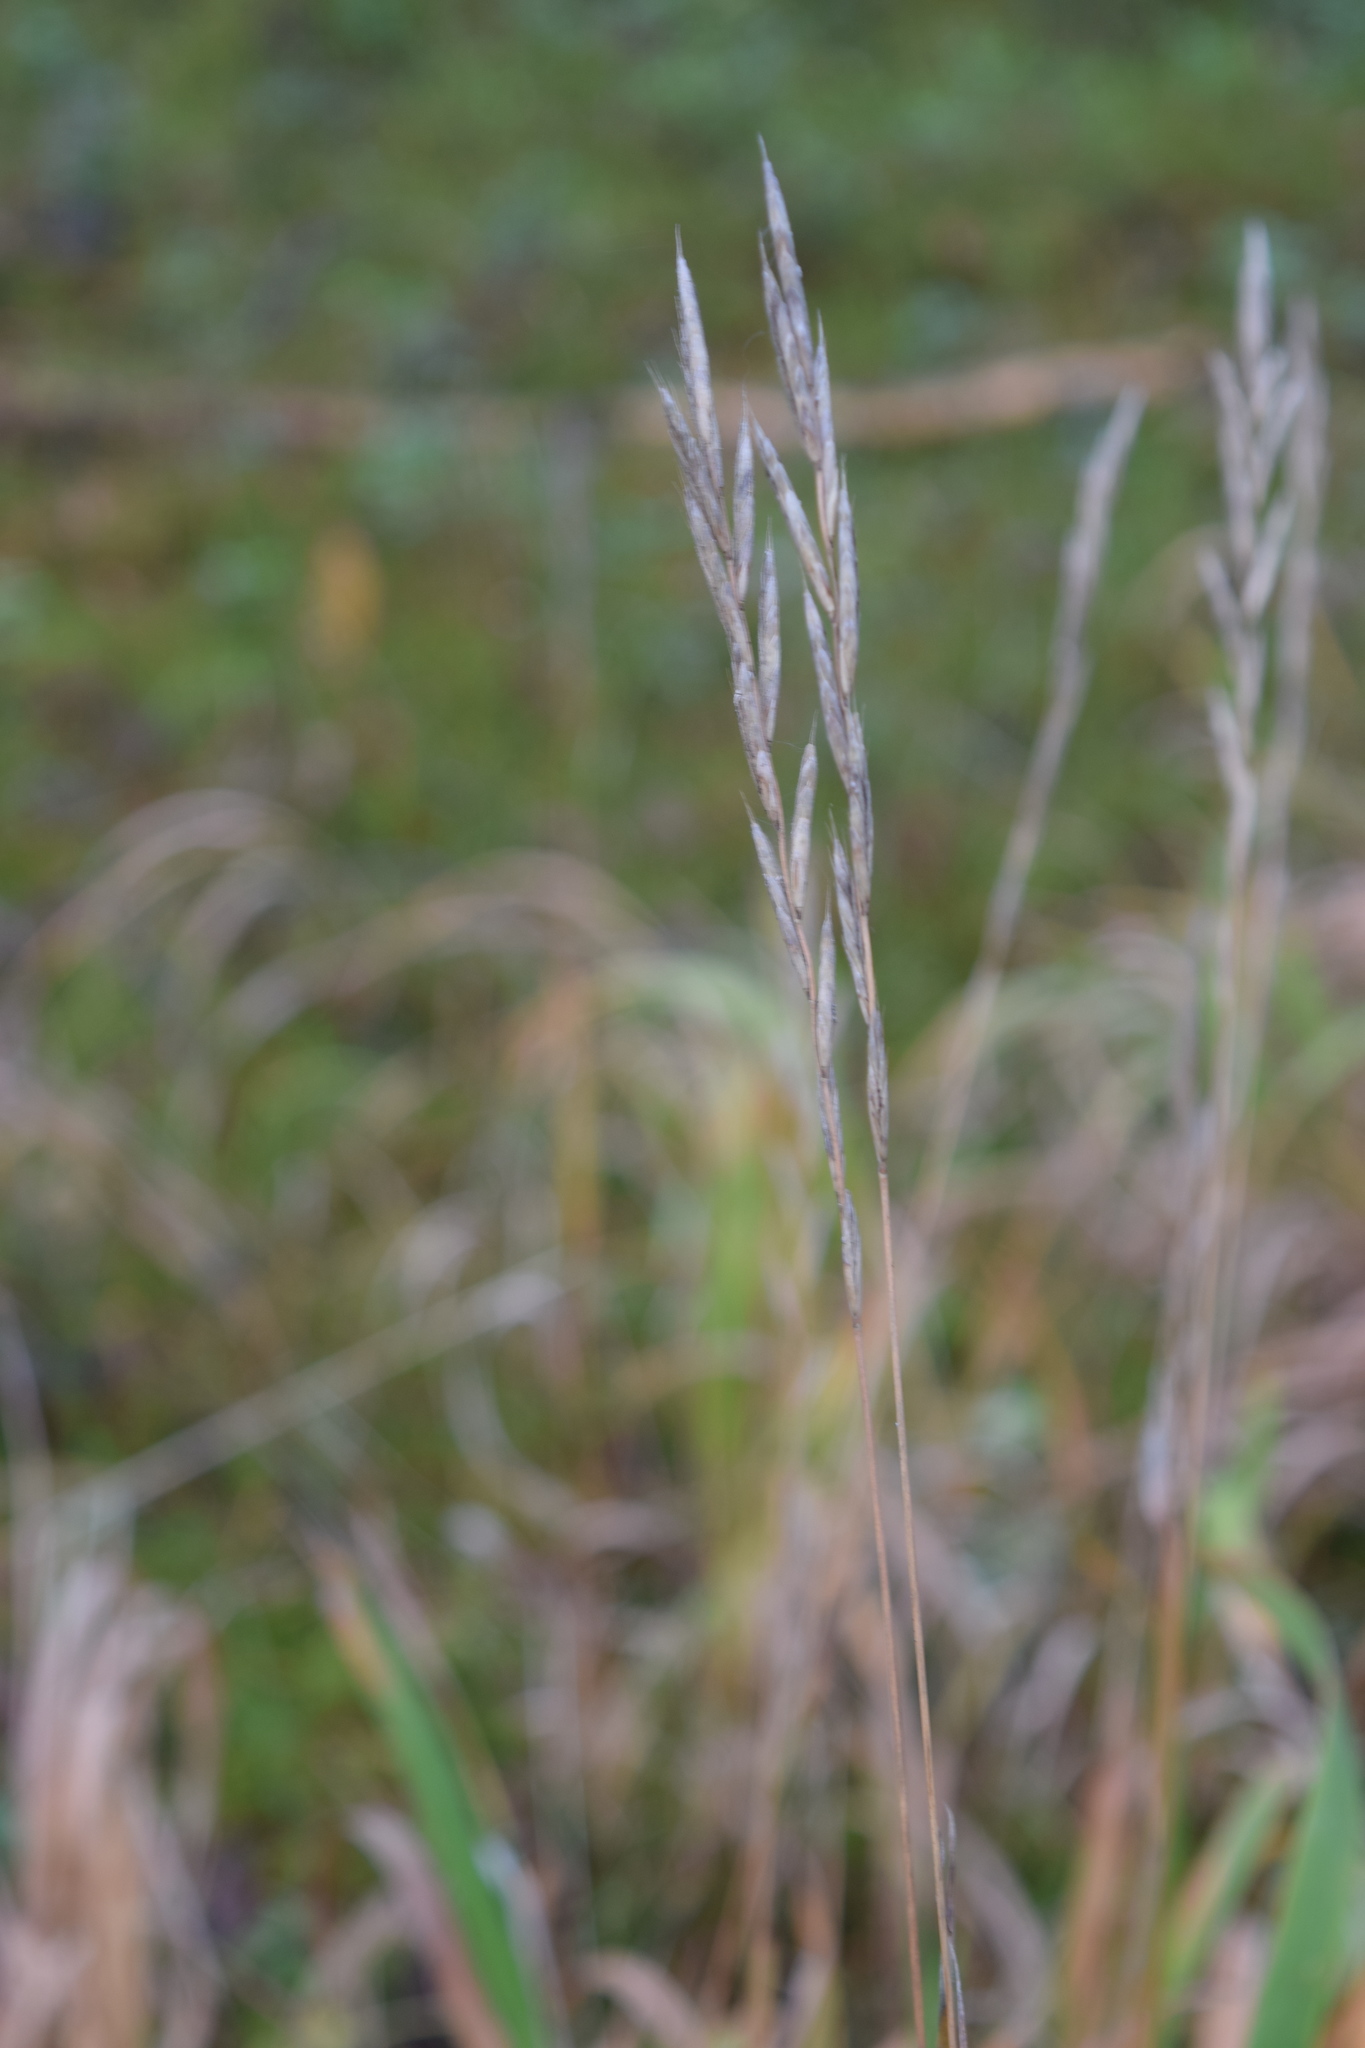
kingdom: Plantae
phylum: Tracheophyta
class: Liliopsida
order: Poales
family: Poaceae
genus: Brachypodium
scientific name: Brachypodium pinnatum
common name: Tor grass
